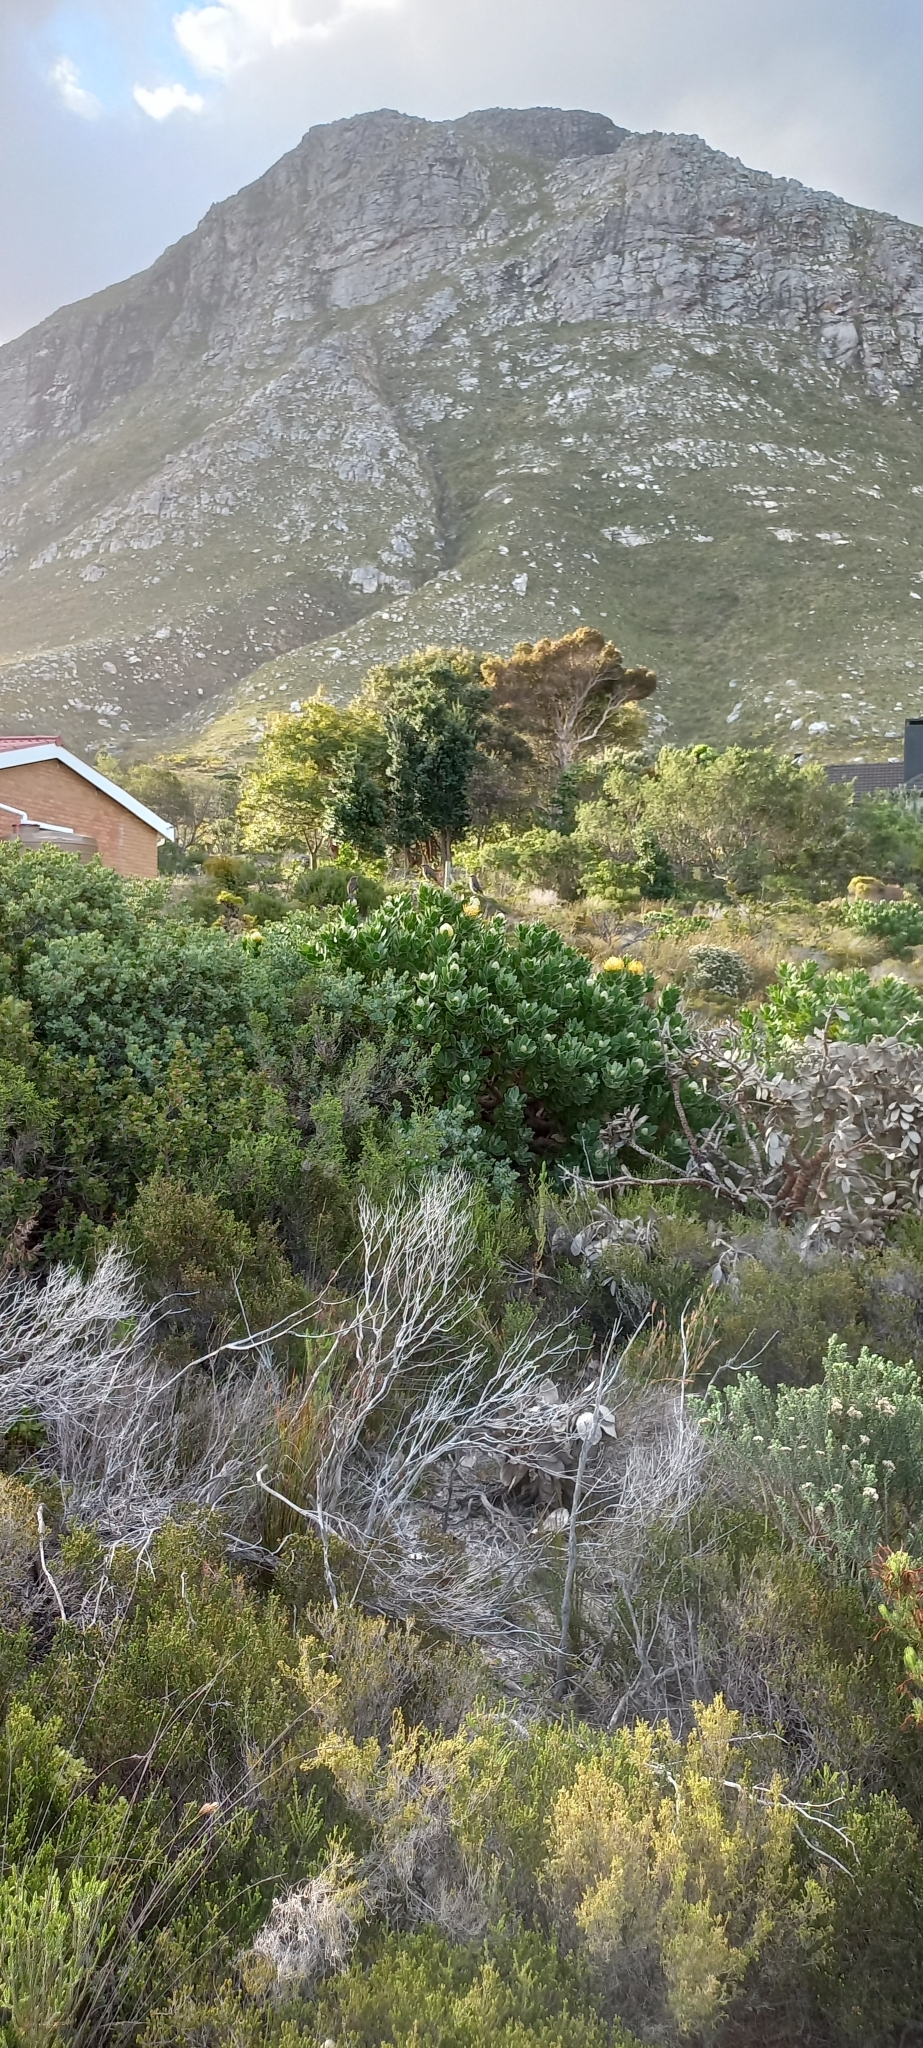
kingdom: Animalia
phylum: Chordata
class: Aves
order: Passeriformes
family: Promeropidae
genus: Promerops
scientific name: Promerops cafer
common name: Cape sugarbird
